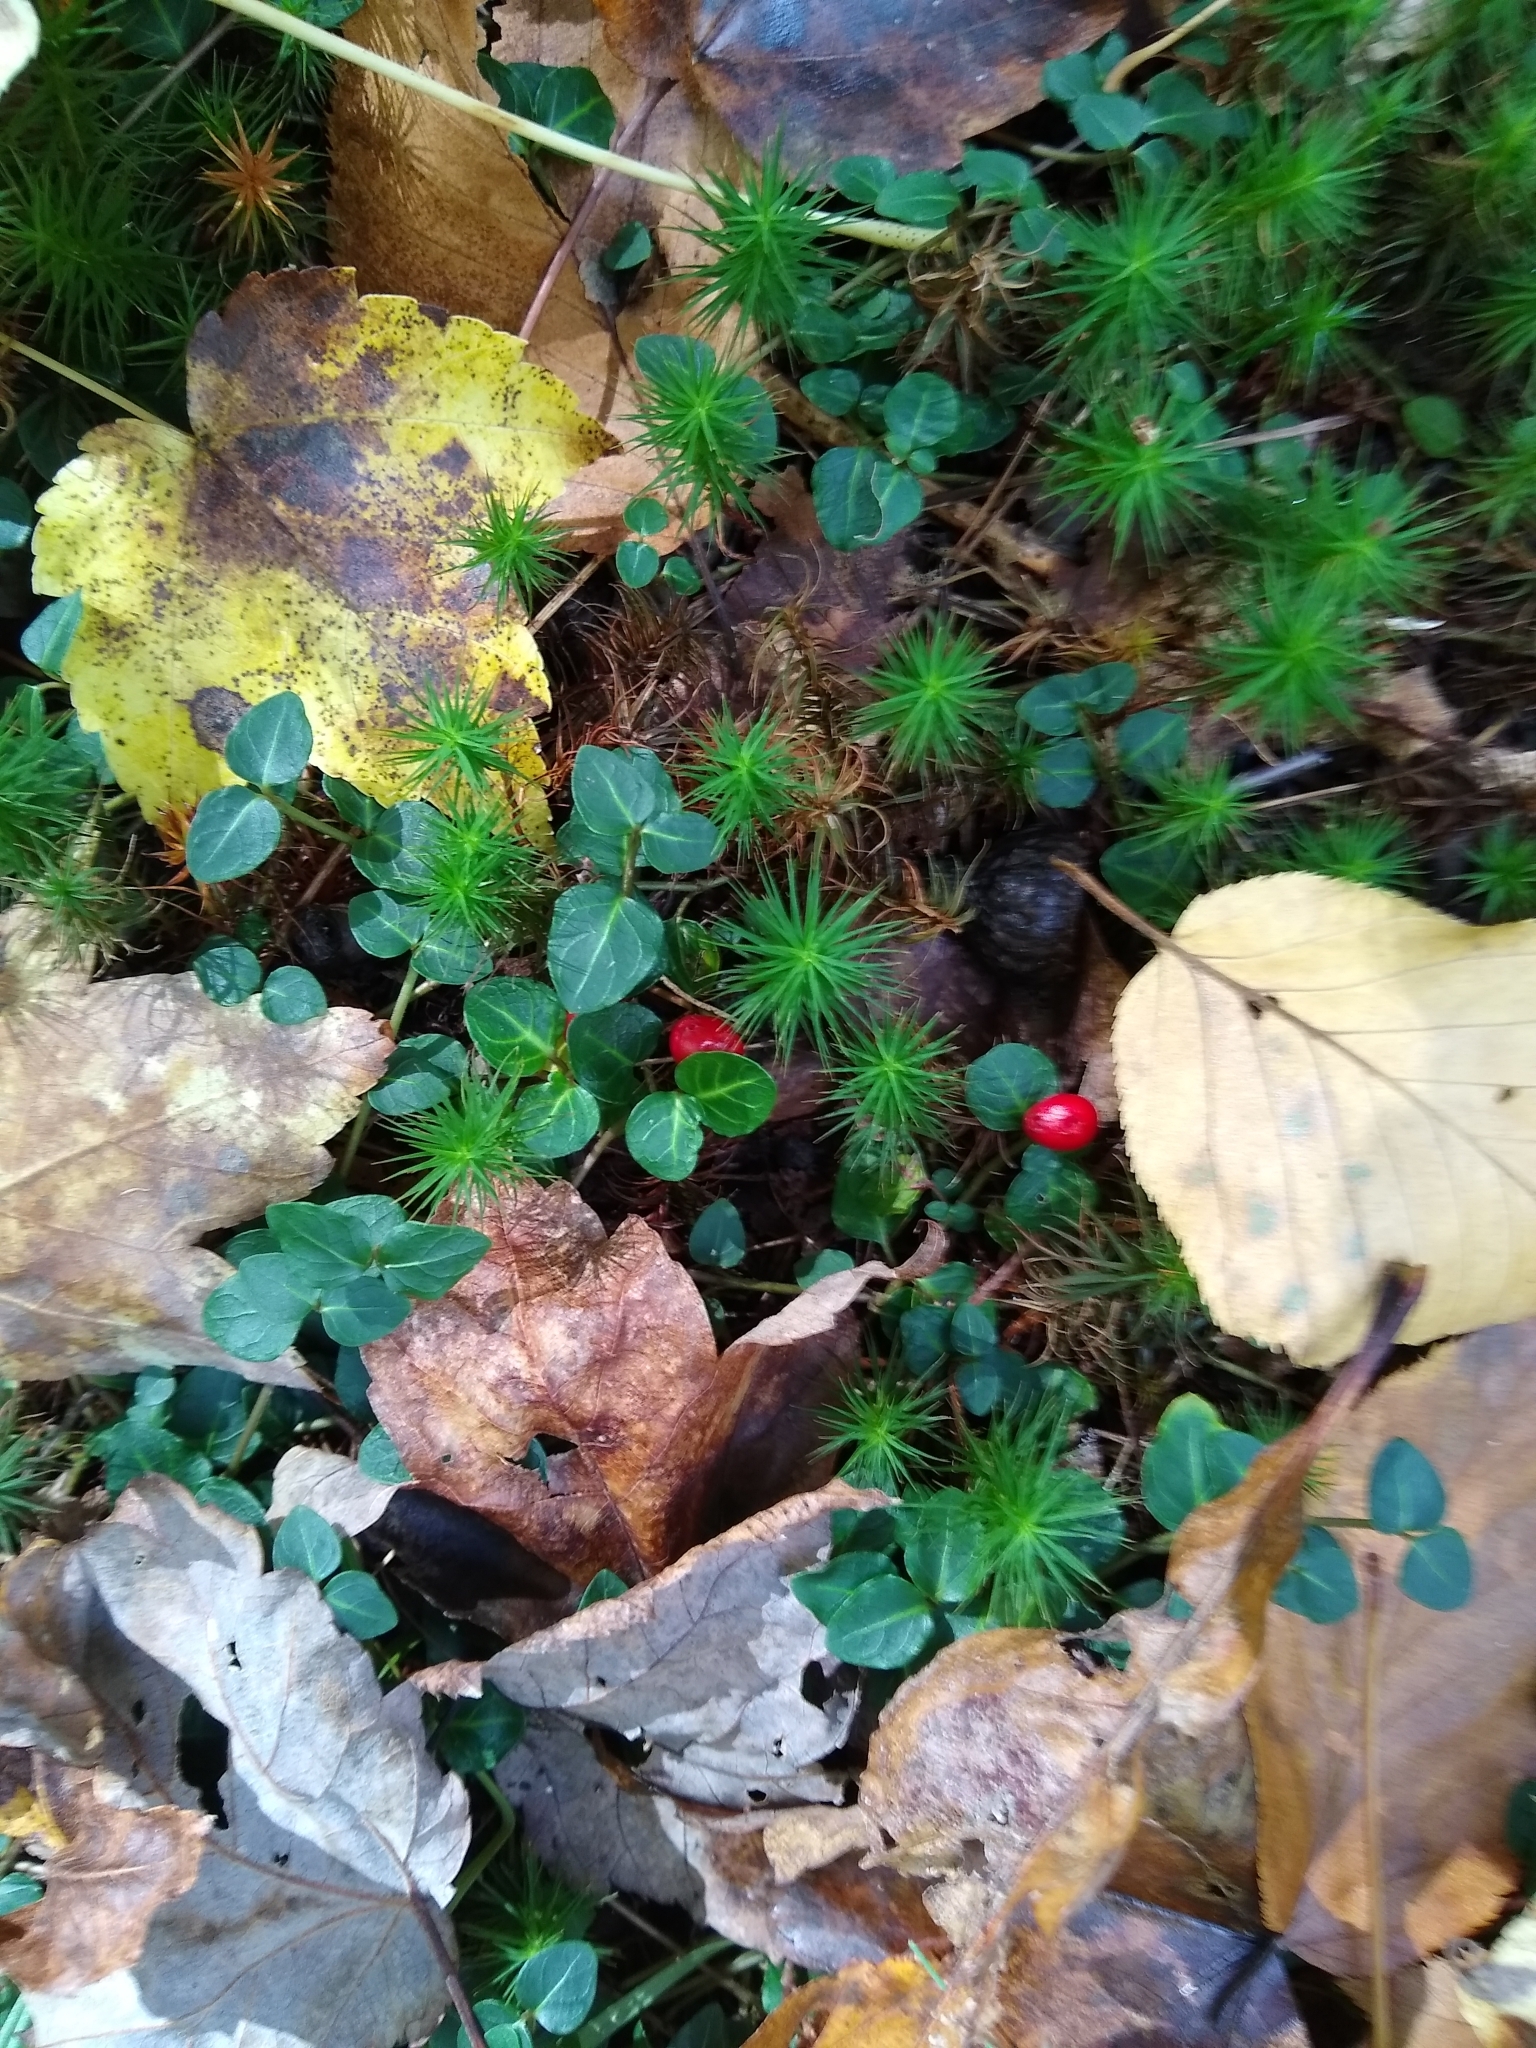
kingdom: Plantae
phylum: Tracheophyta
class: Magnoliopsida
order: Gentianales
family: Rubiaceae
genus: Mitchella
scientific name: Mitchella repens
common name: Partridge-berry
